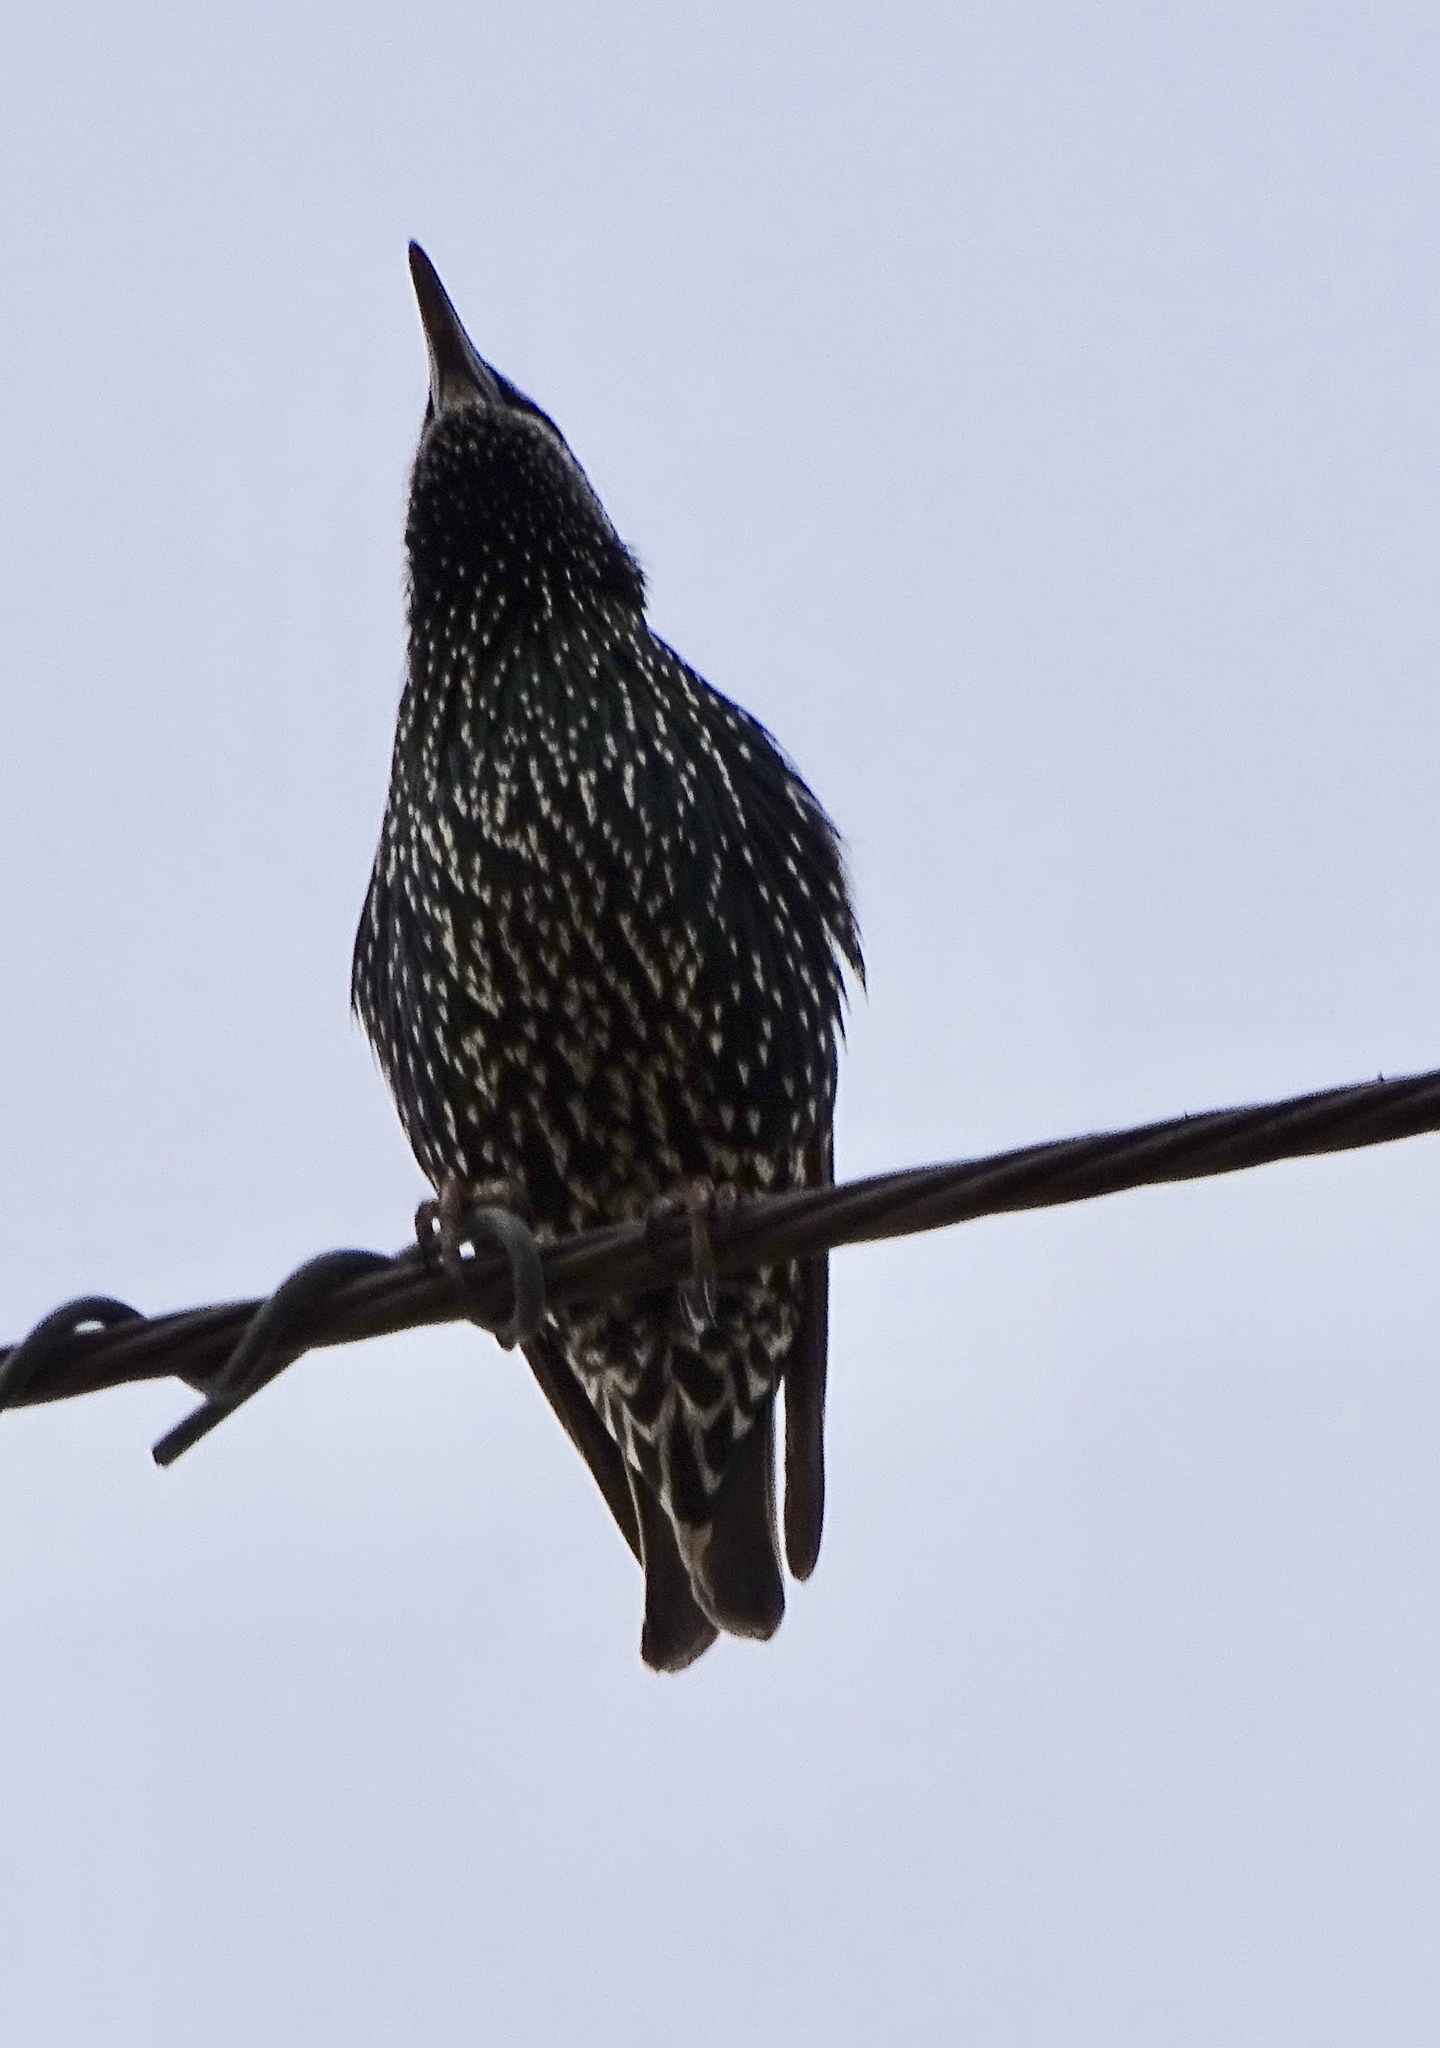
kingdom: Animalia
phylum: Chordata
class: Aves
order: Passeriformes
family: Sturnidae
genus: Sturnus
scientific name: Sturnus vulgaris
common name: Common starling
